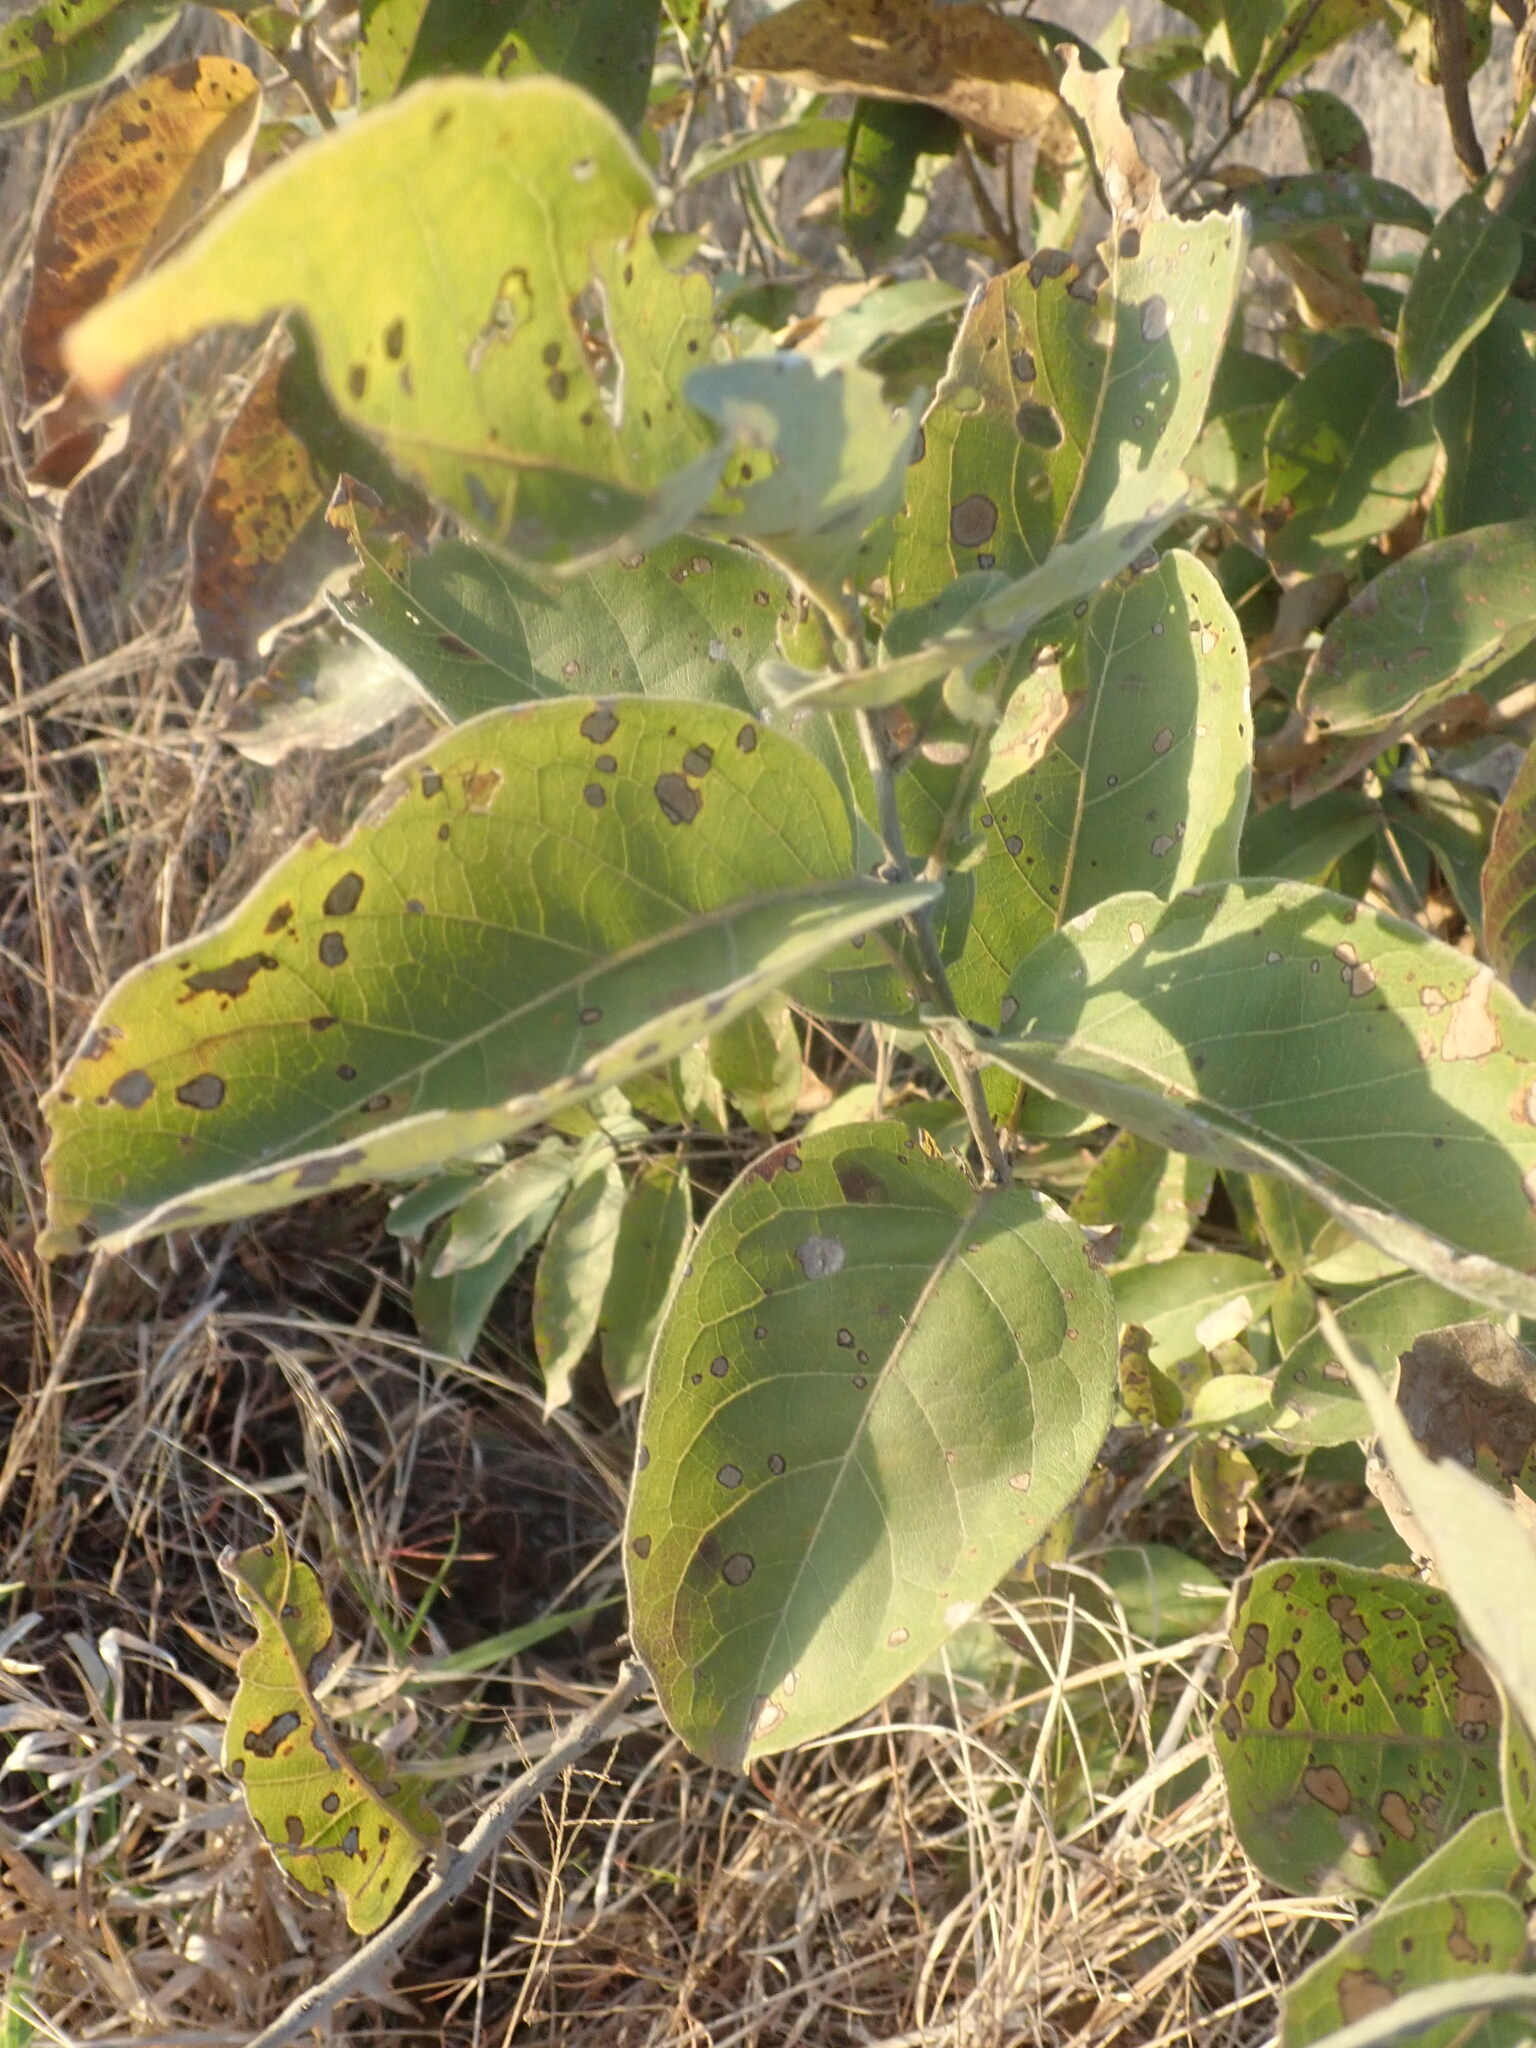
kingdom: Plantae
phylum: Tracheophyta
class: Magnoliopsida
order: Myrtales
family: Combretaceae
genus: Combretum
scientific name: Combretum zeyheri
